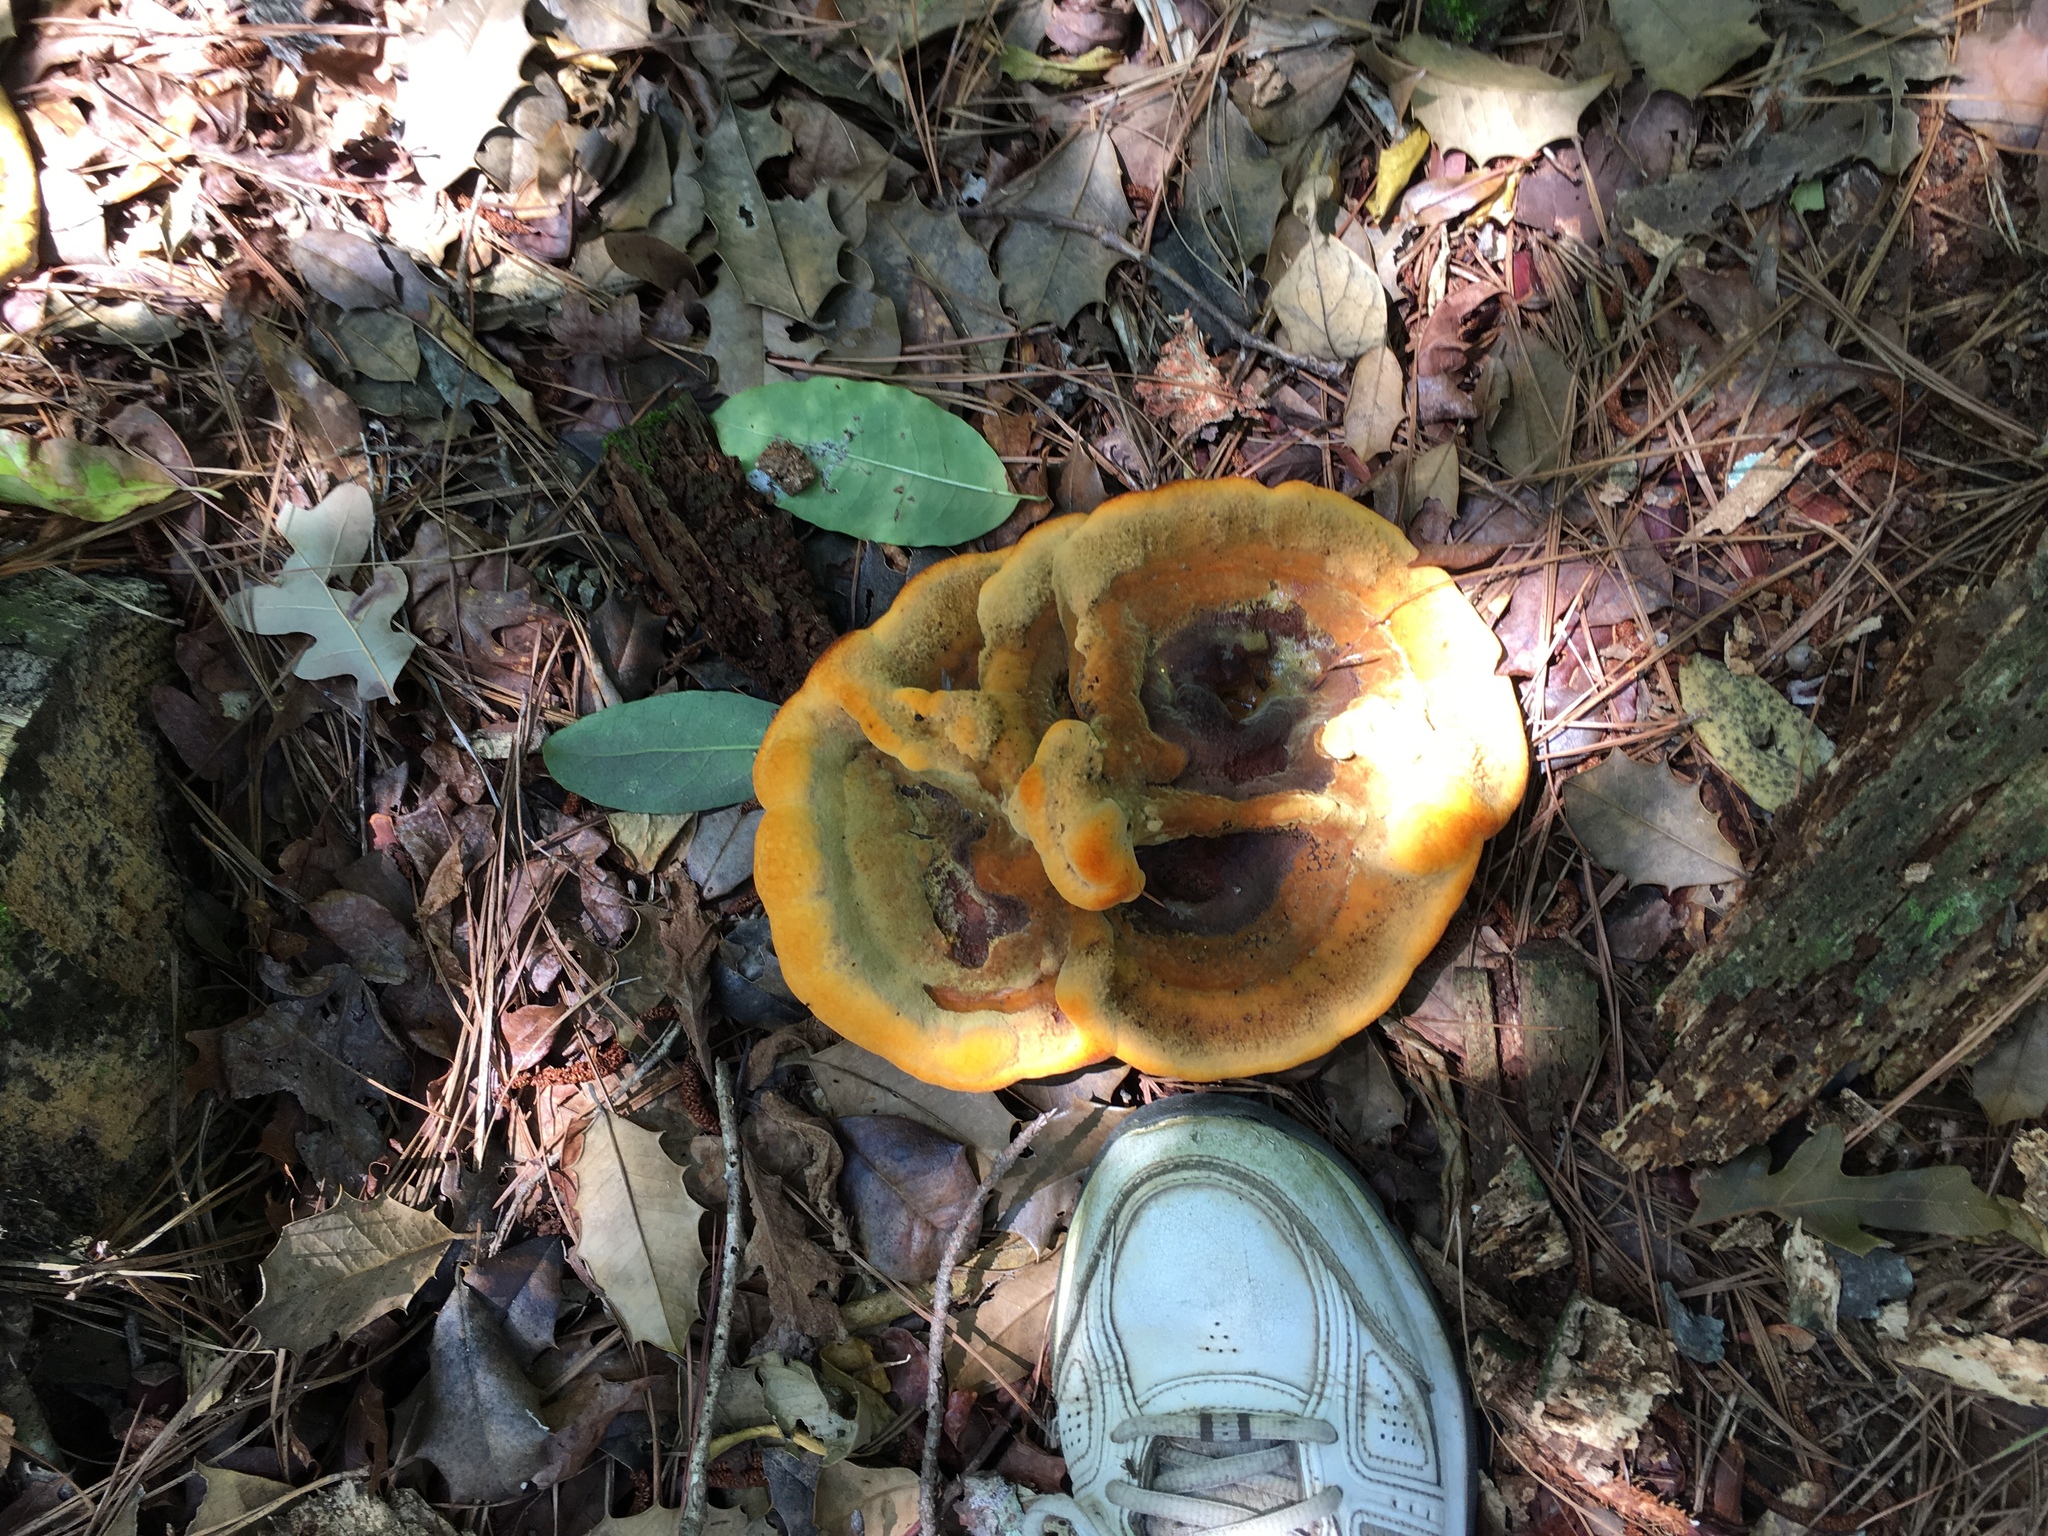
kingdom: Fungi
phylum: Basidiomycota
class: Agaricomycetes
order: Polyporales
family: Laetiporaceae
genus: Phaeolus
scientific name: Phaeolus schweinitzii
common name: Dyer's mazegill
